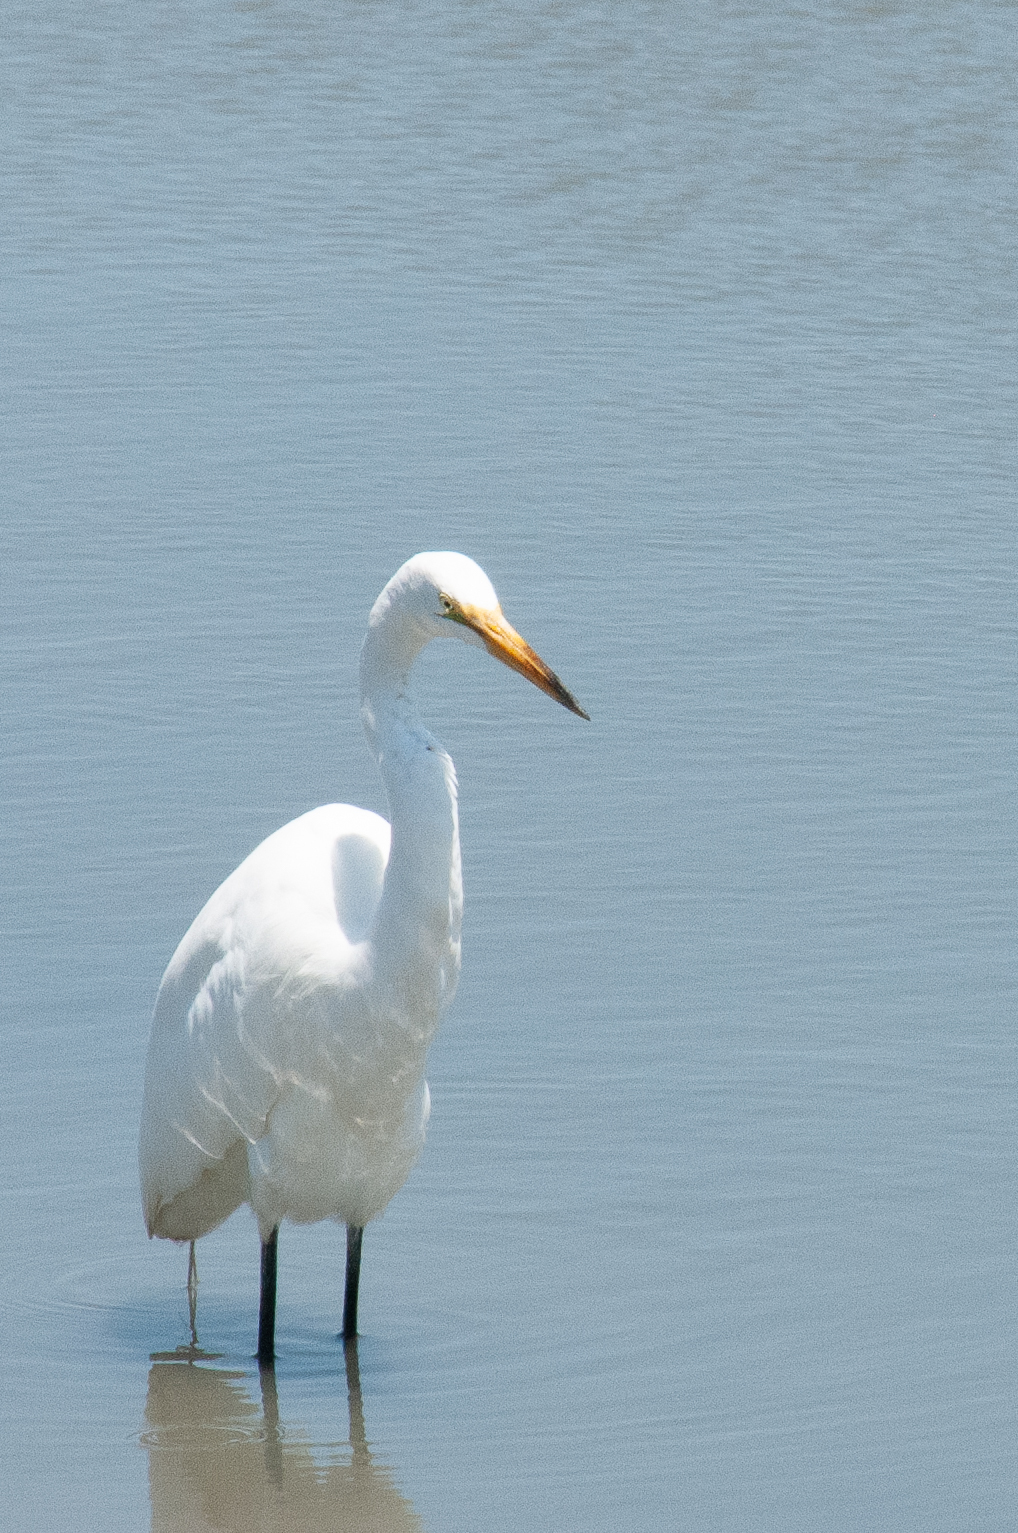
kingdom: Animalia
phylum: Chordata
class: Aves
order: Pelecaniformes
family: Ardeidae
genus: Ardea
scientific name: Ardea alba
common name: Great egret
